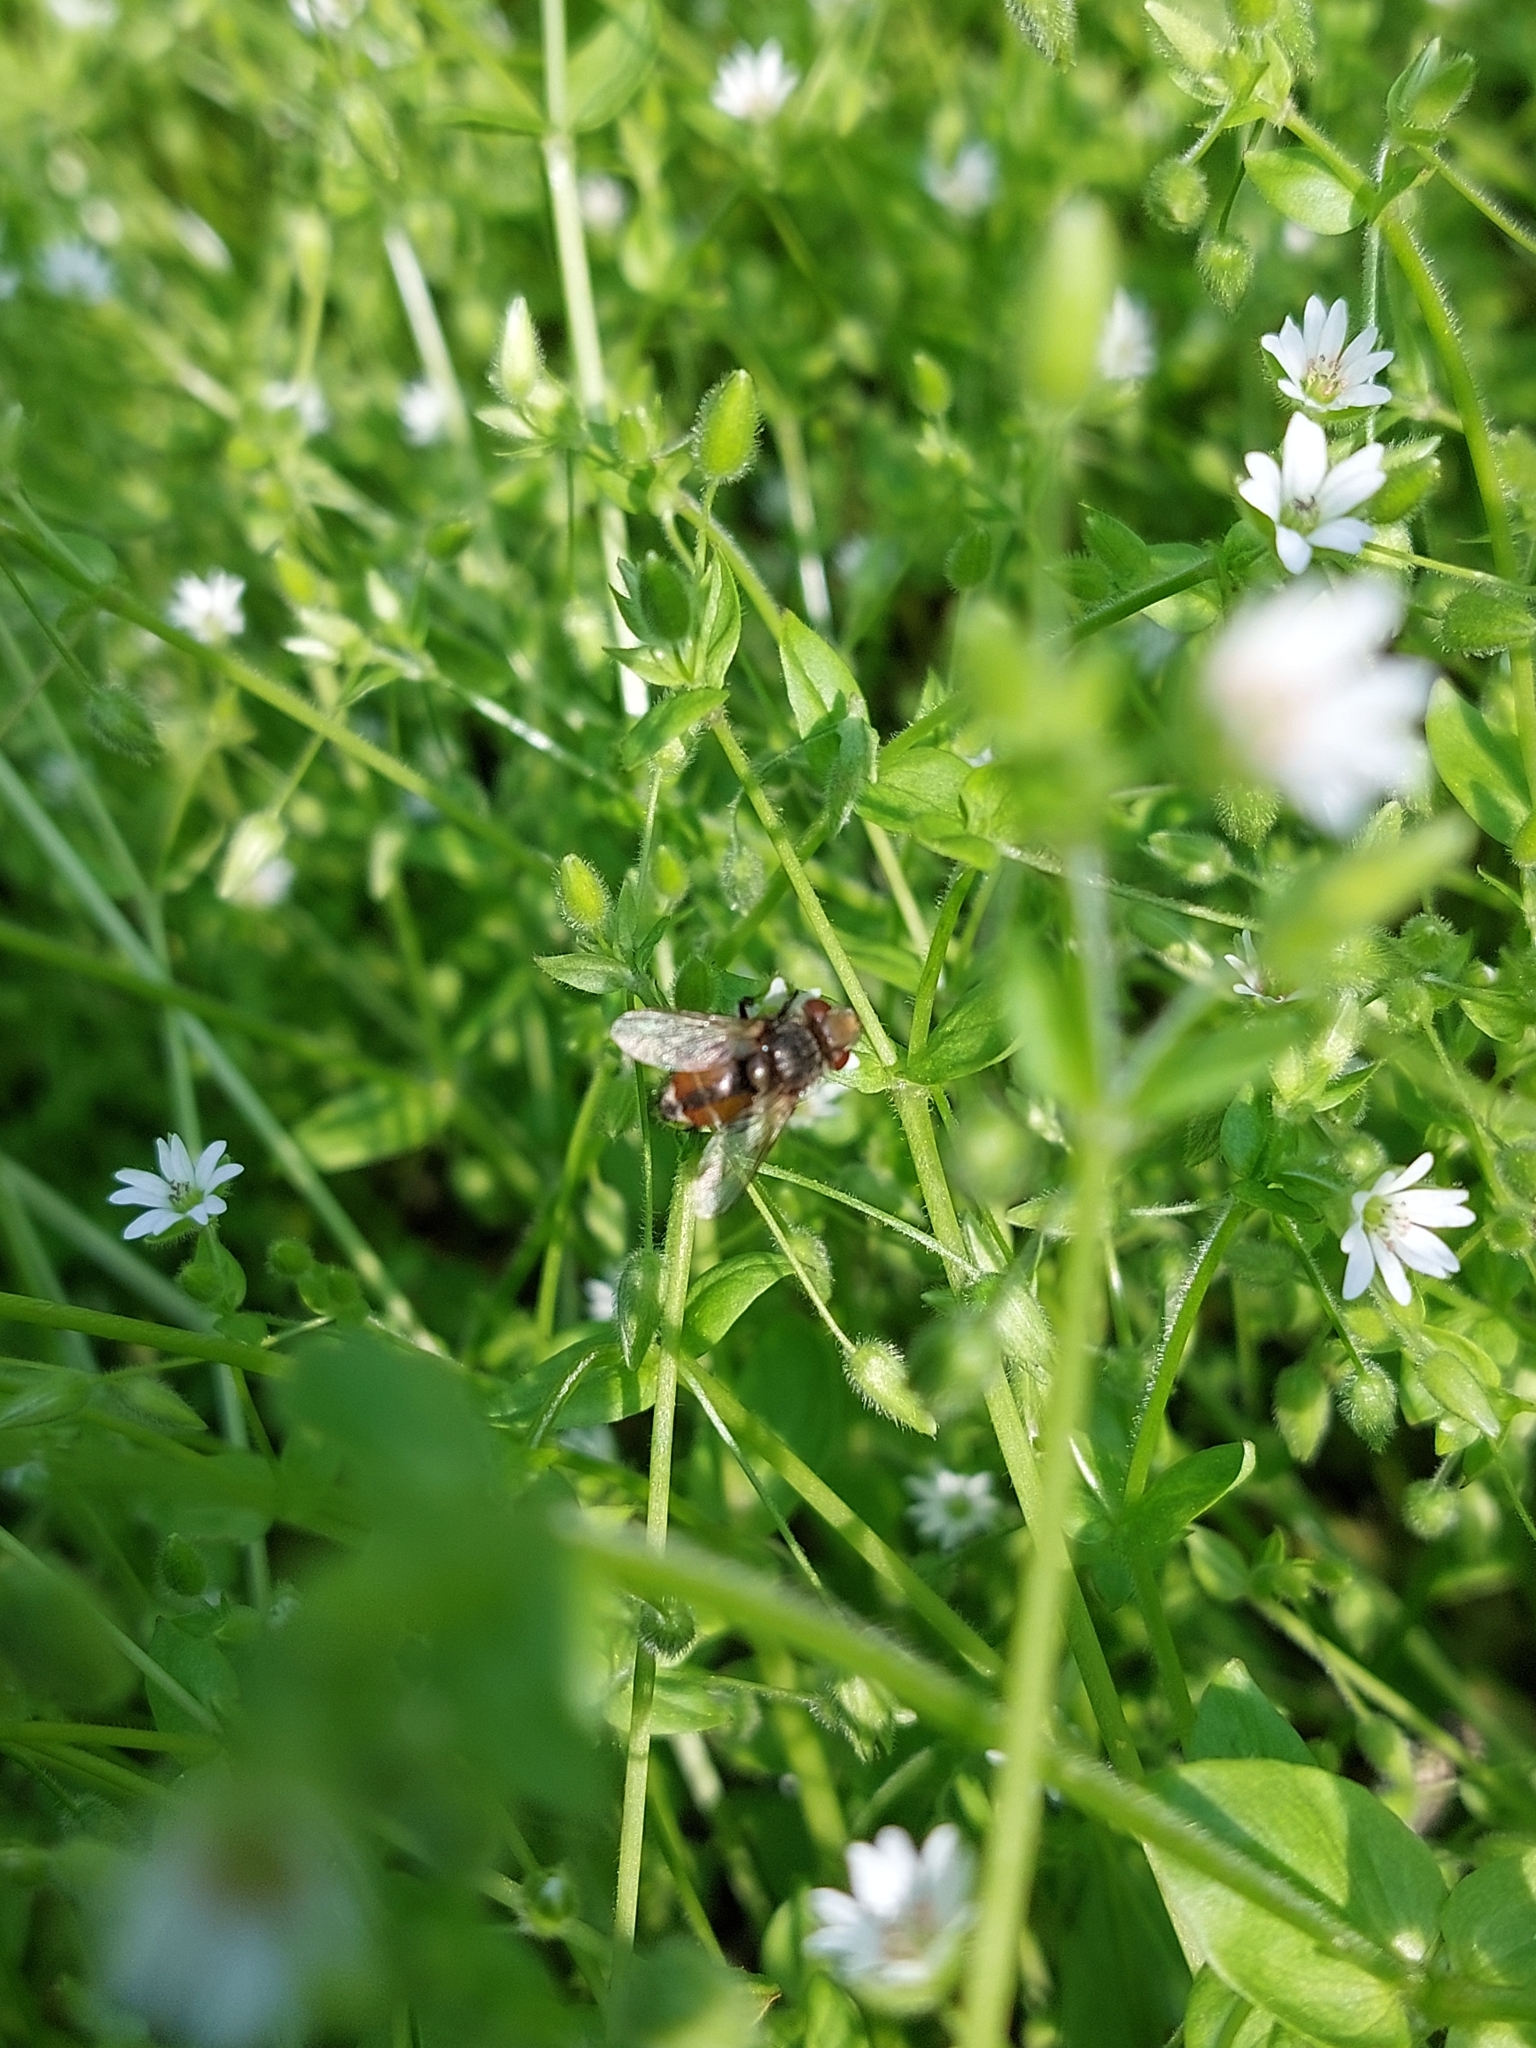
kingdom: Animalia
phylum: Arthropoda
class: Insecta
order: Diptera
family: Tachinidae
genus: Gonia
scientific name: Gonia vacua
